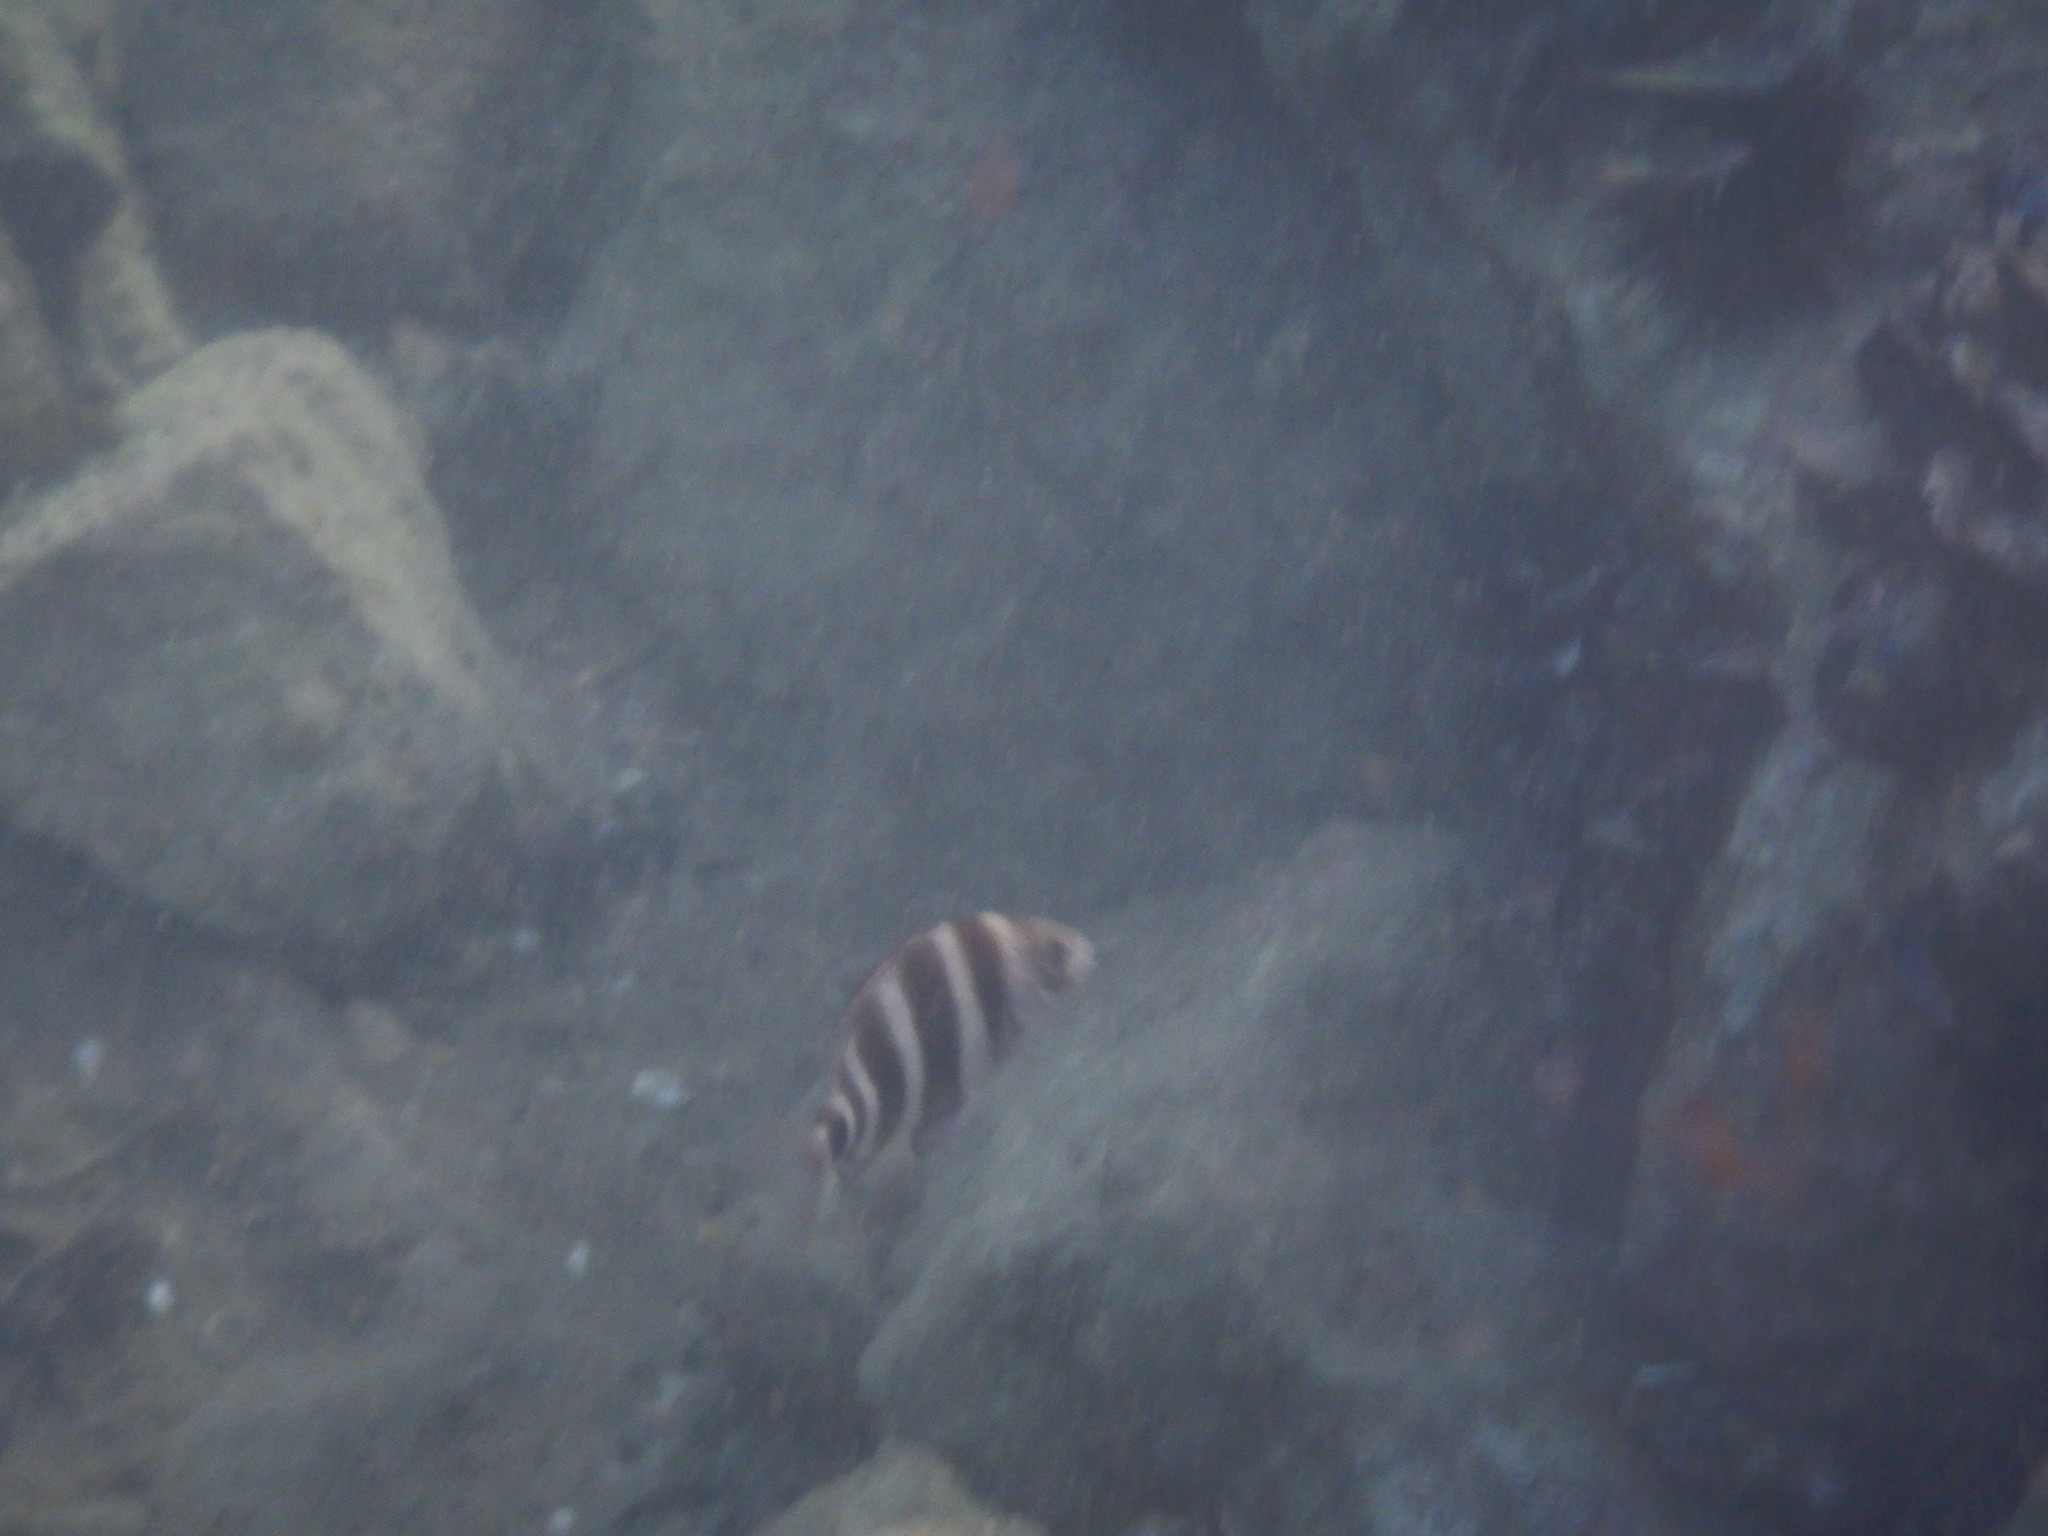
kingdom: Animalia
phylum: Chordata
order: Perciformes
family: Sparidae
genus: Diplodus
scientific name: Diplodus cervinus
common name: Oman porgy
